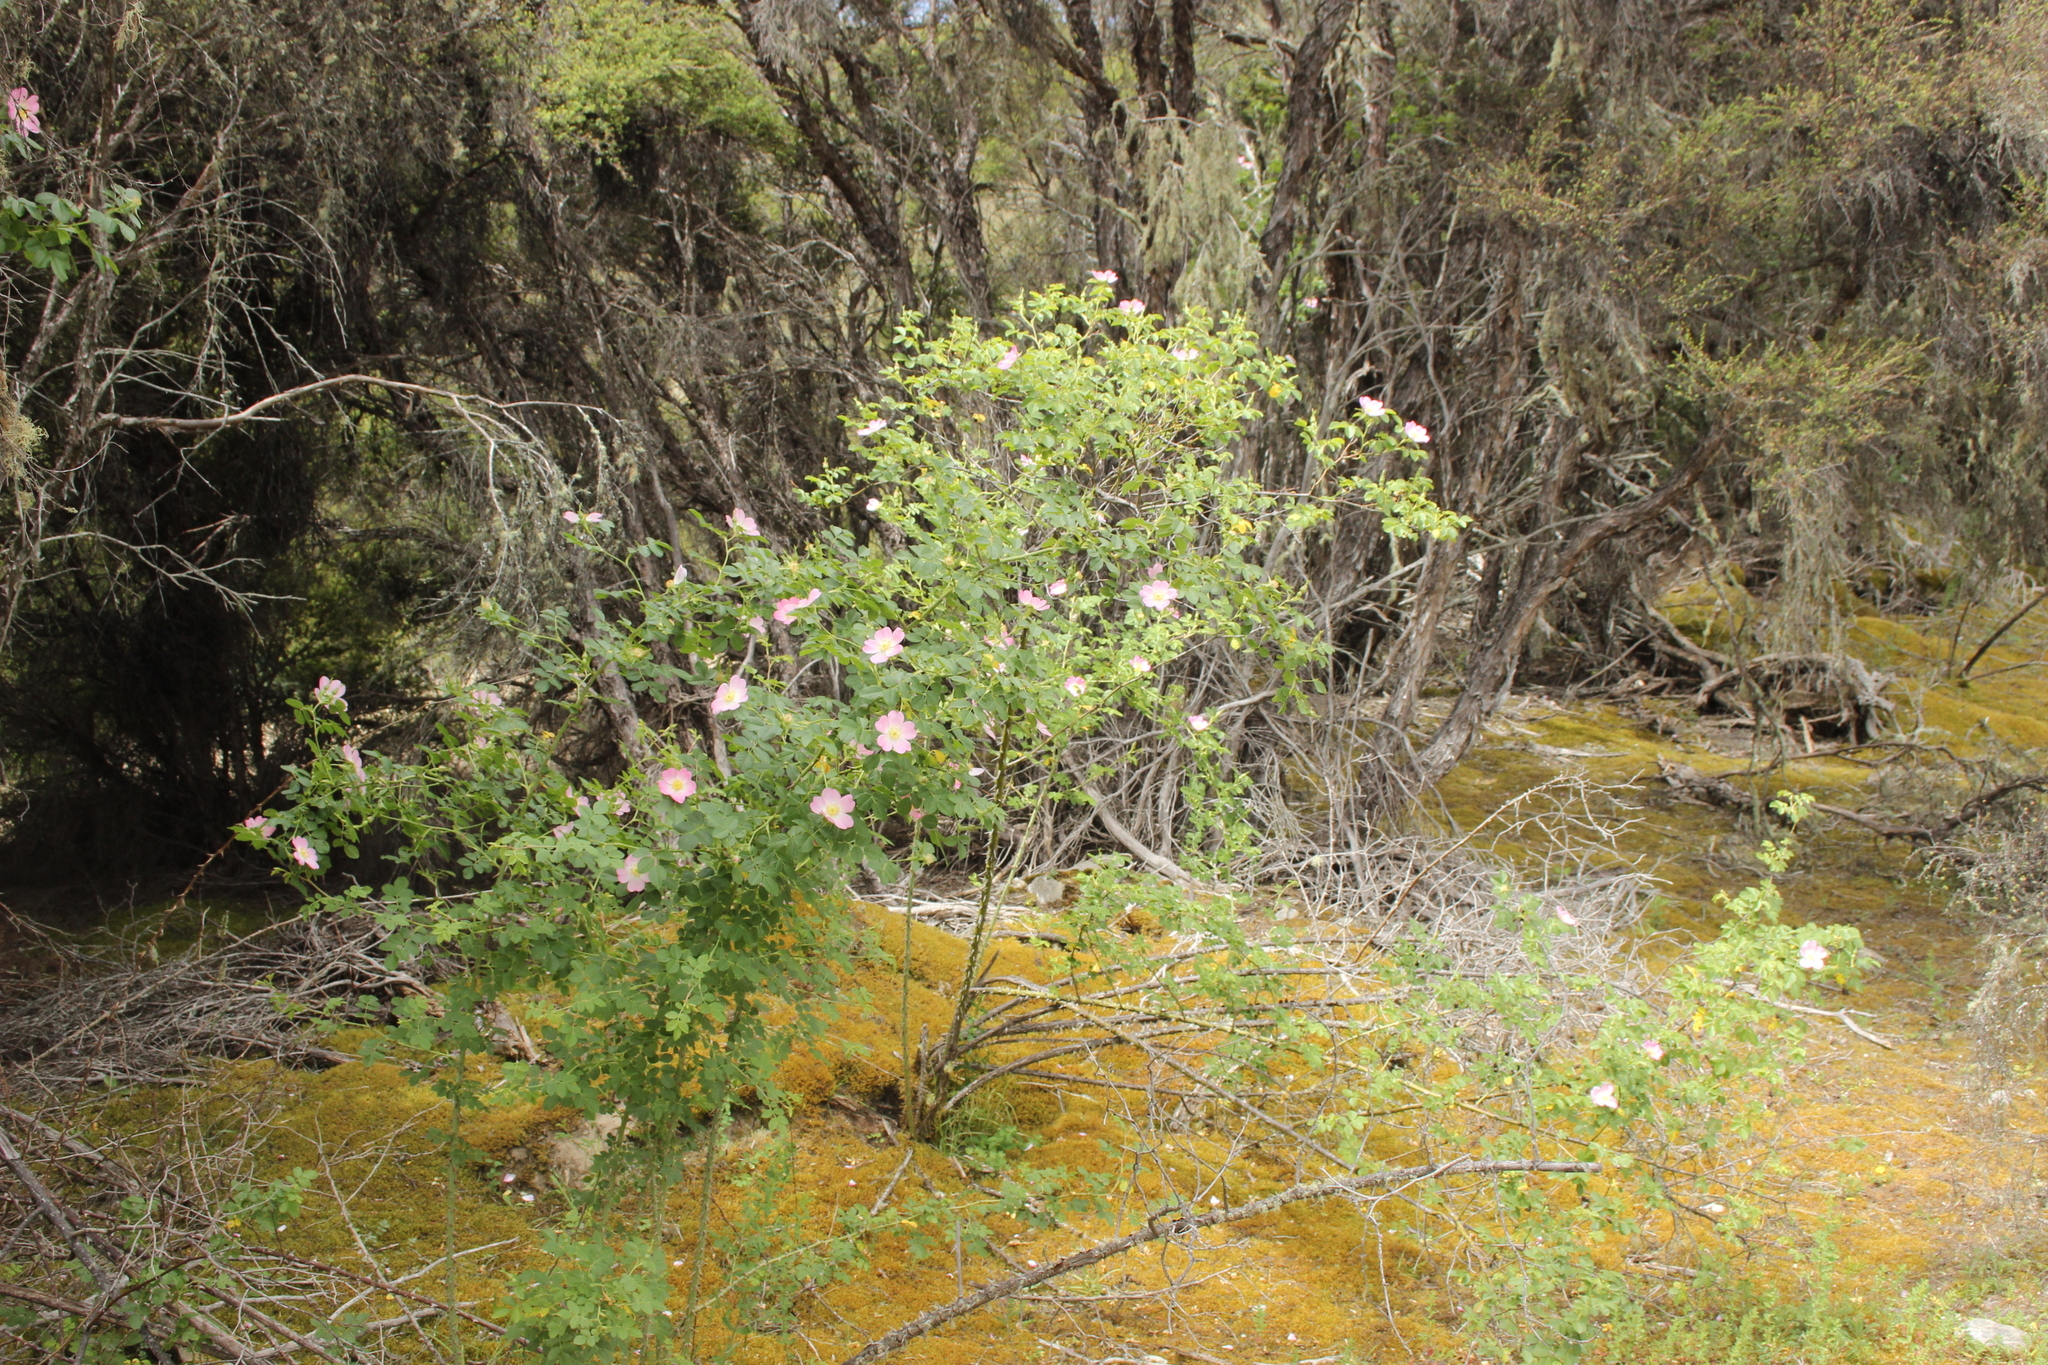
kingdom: Plantae
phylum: Tracheophyta
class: Magnoliopsida
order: Rosales
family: Rosaceae
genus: Rosa
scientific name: Rosa rubiginosa
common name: Sweet-briar
